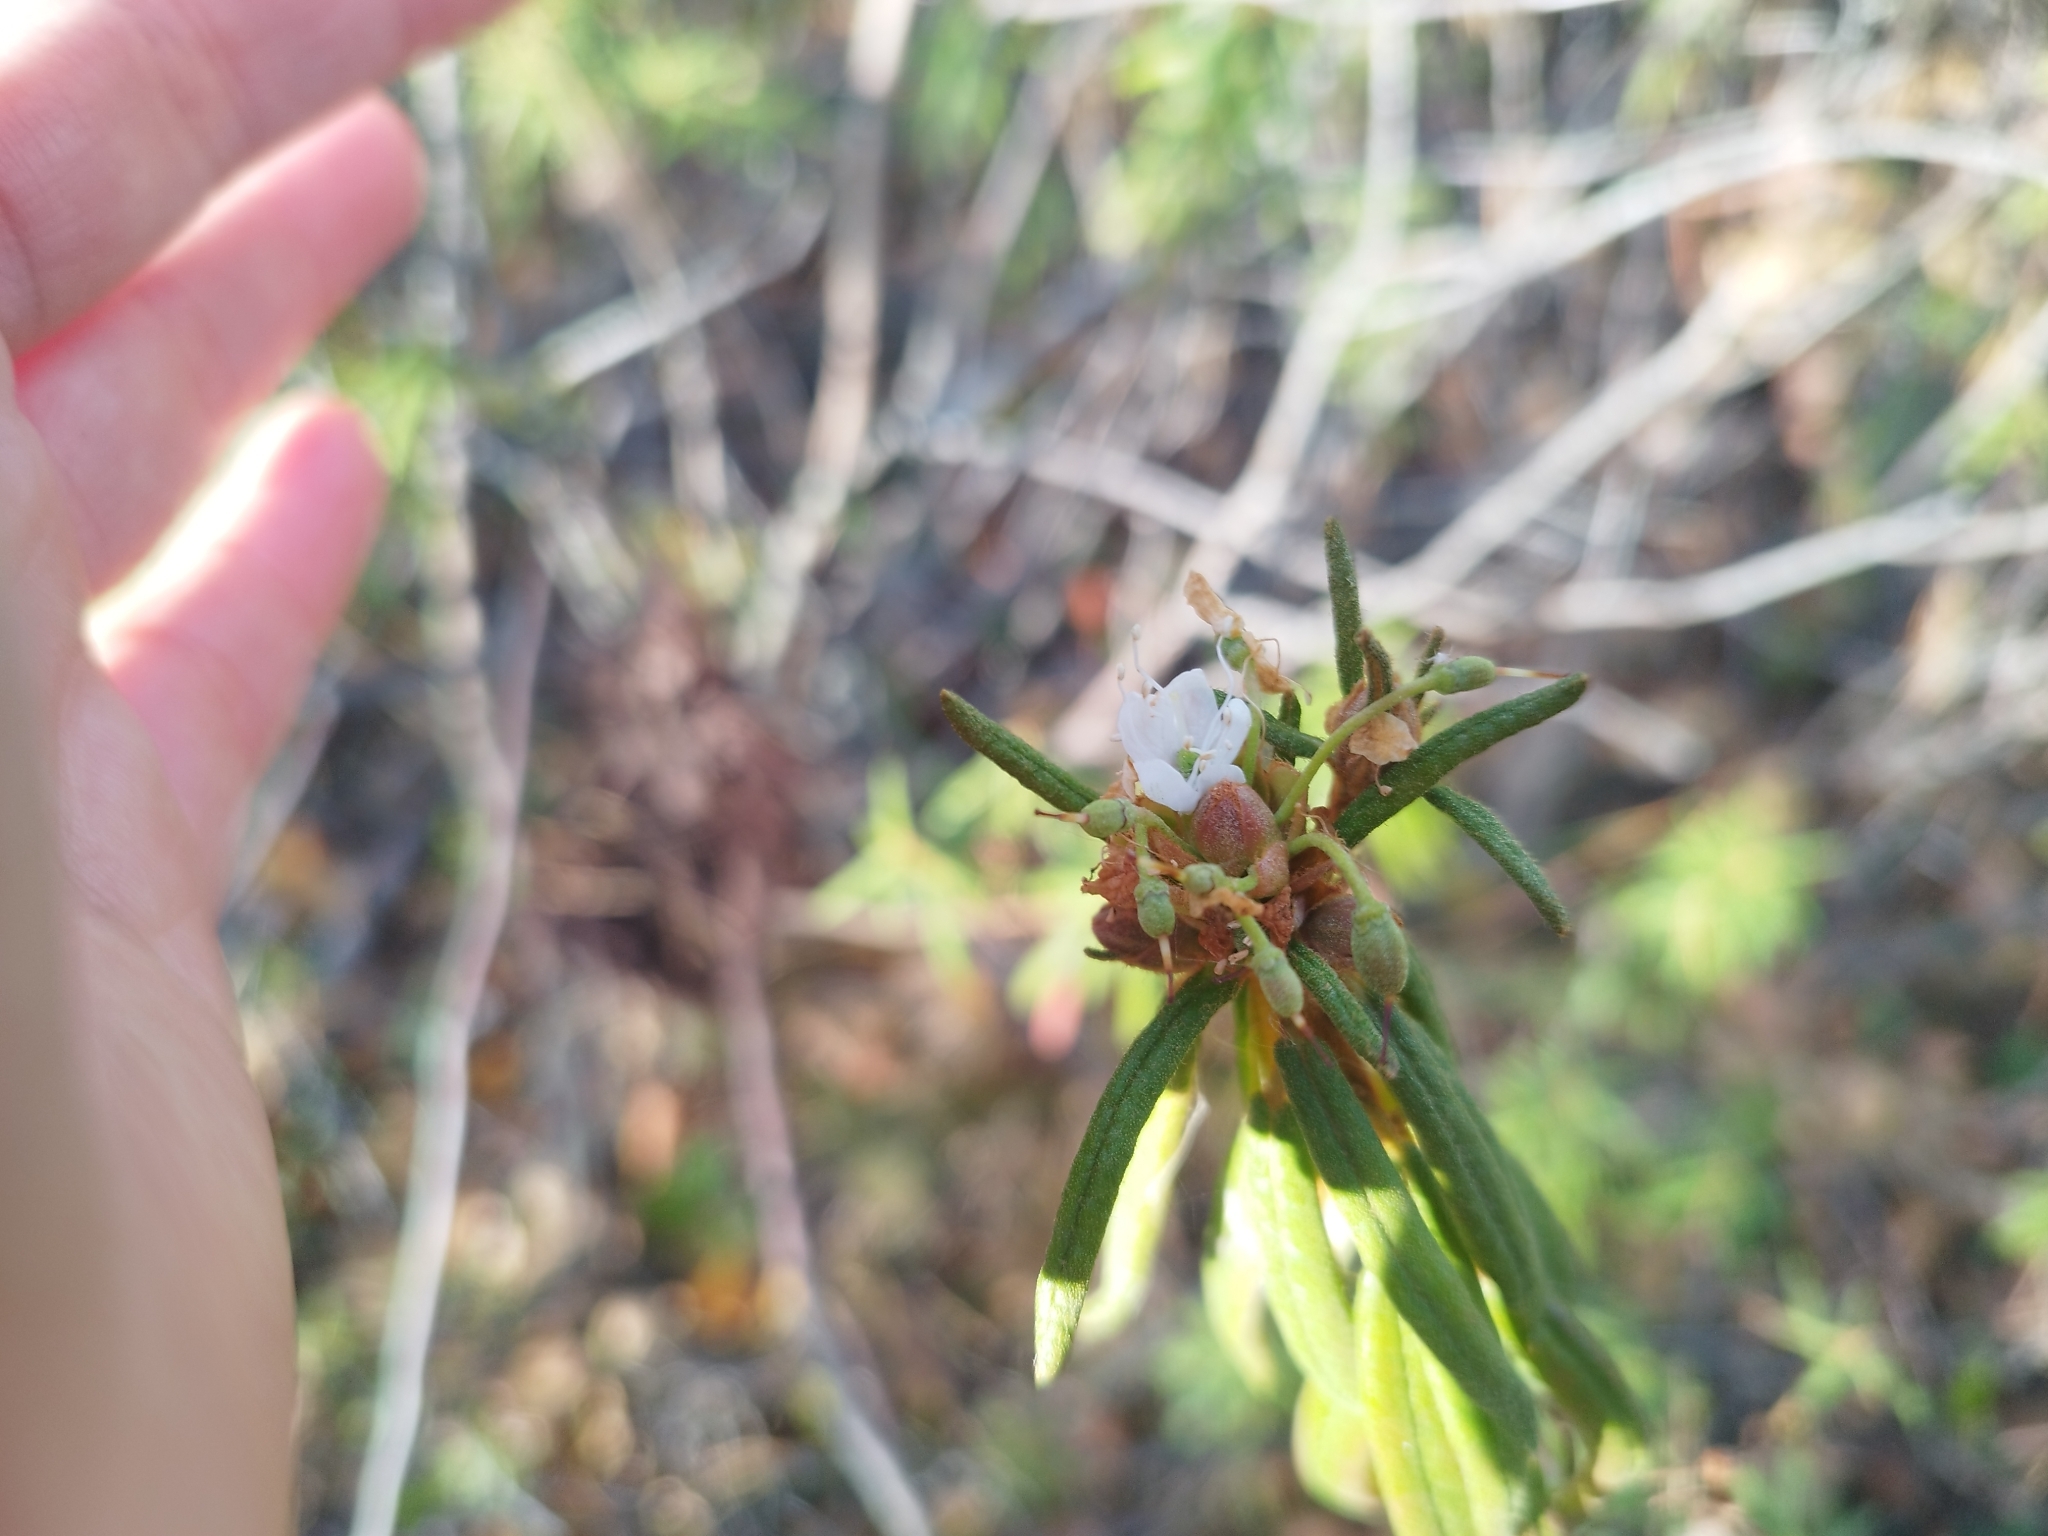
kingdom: Plantae
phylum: Tracheophyta
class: Magnoliopsida
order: Ericales
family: Ericaceae
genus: Rhododendron
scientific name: Rhododendron tomentosum
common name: Marsh labrador tea
